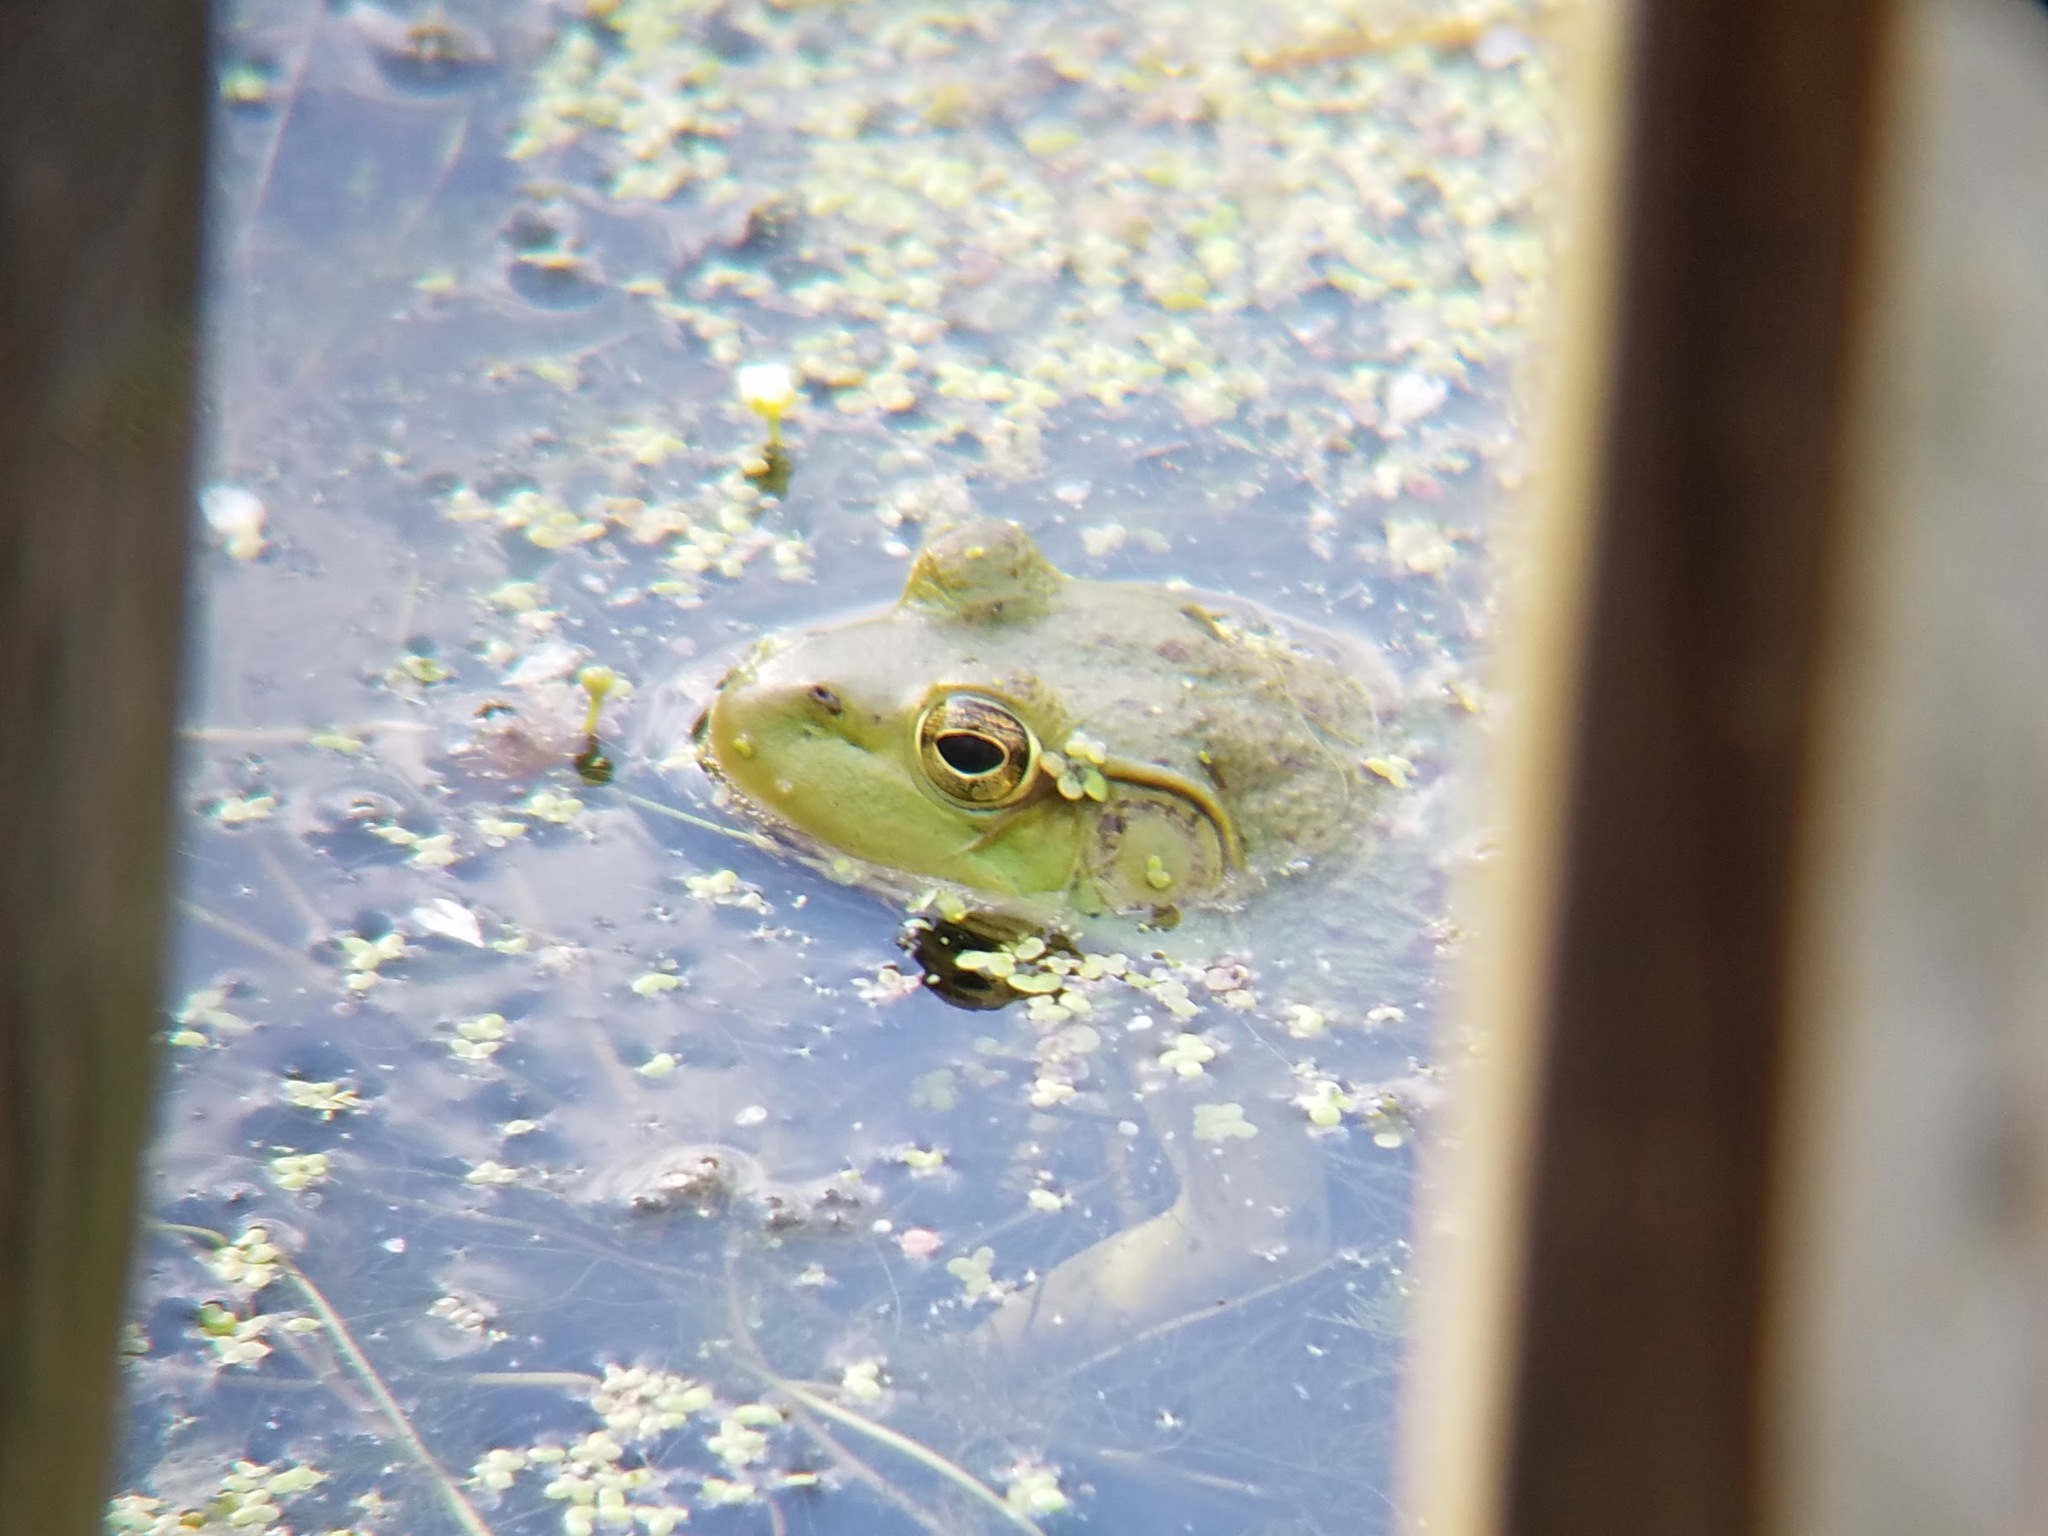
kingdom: Animalia
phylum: Chordata
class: Amphibia
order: Anura
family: Ranidae
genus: Lithobates
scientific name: Lithobates catesbeianus
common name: American bullfrog
